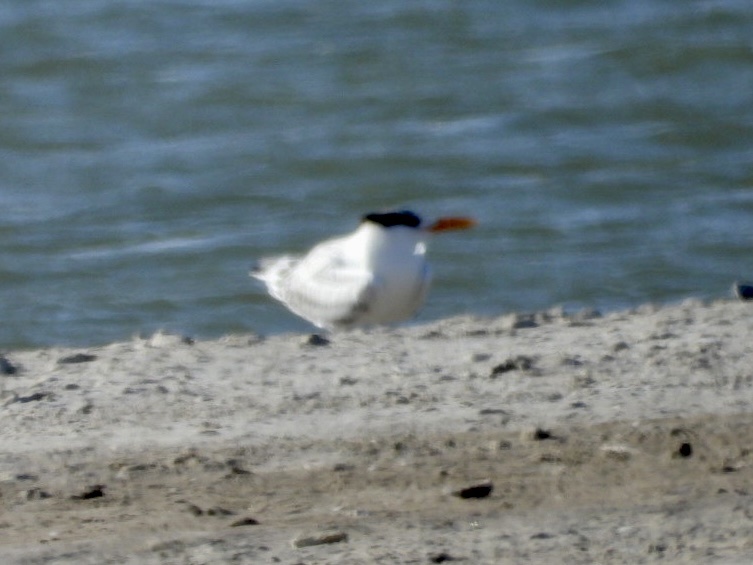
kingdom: Animalia
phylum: Chordata
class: Aves
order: Charadriiformes
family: Laridae
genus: Thalasseus
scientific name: Thalasseus maximus
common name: Royal tern
